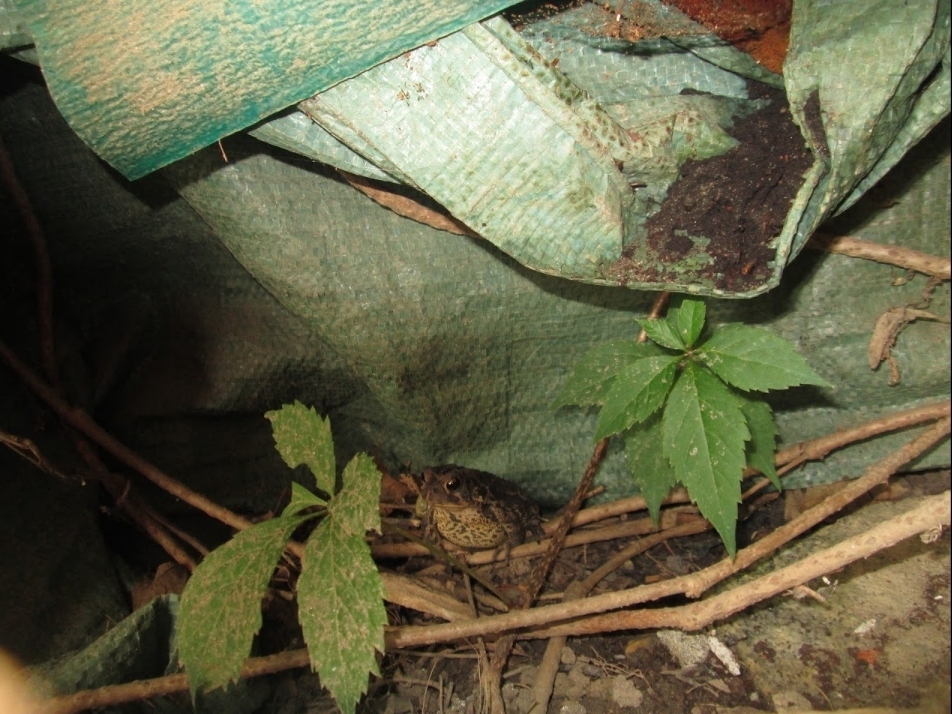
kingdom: Animalia
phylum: Chordata
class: Amphibia
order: Anura
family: Bufonidae
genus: Anaxyrus
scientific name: Anaxyrus americanus
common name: American toad
